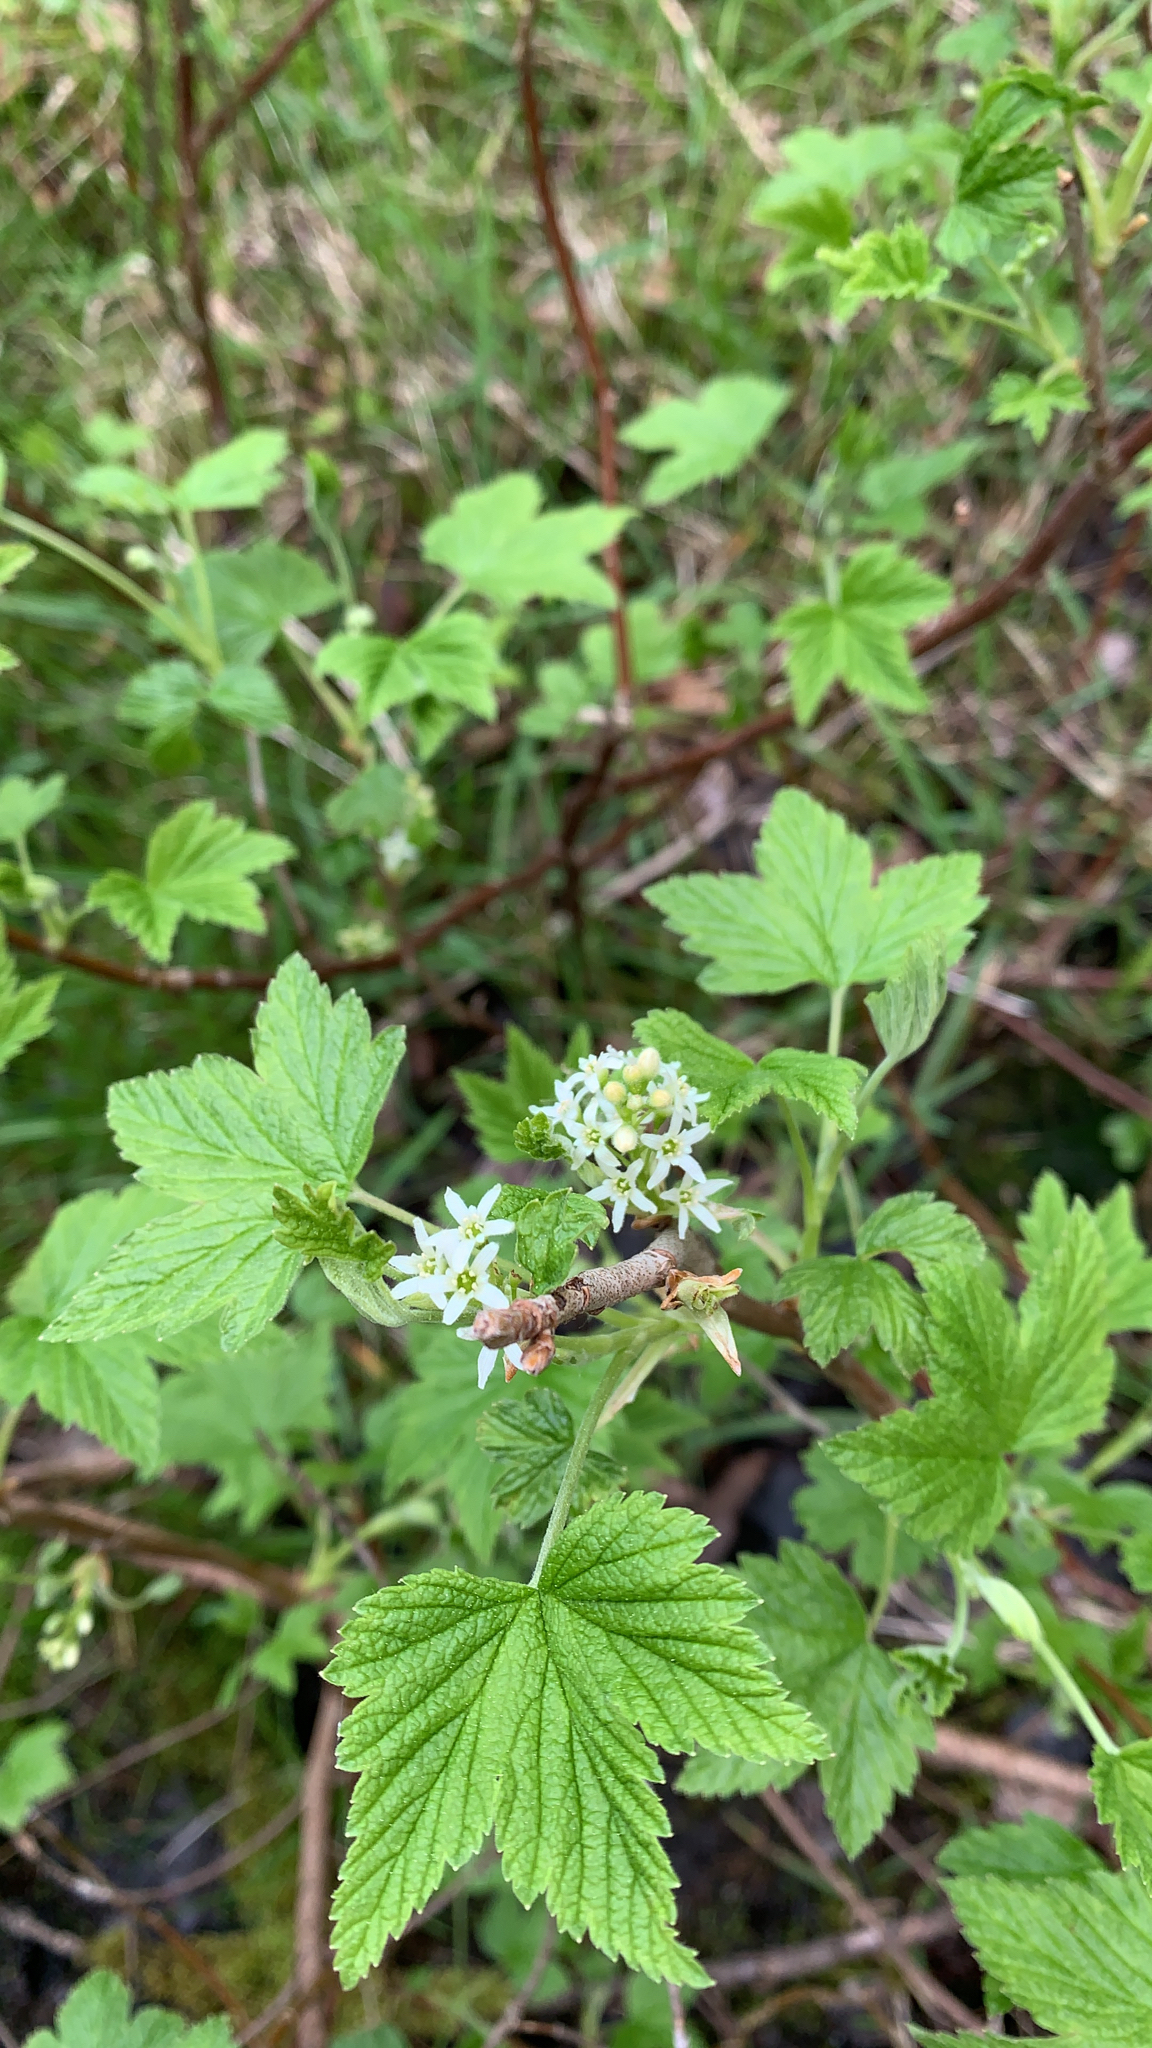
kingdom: Plantae
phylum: Tracheophyta
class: Magnoliopsida
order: Saxifragales
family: Grossulariaceae
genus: Ribes
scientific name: Ribes hudsonianum
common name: Northern black currant
